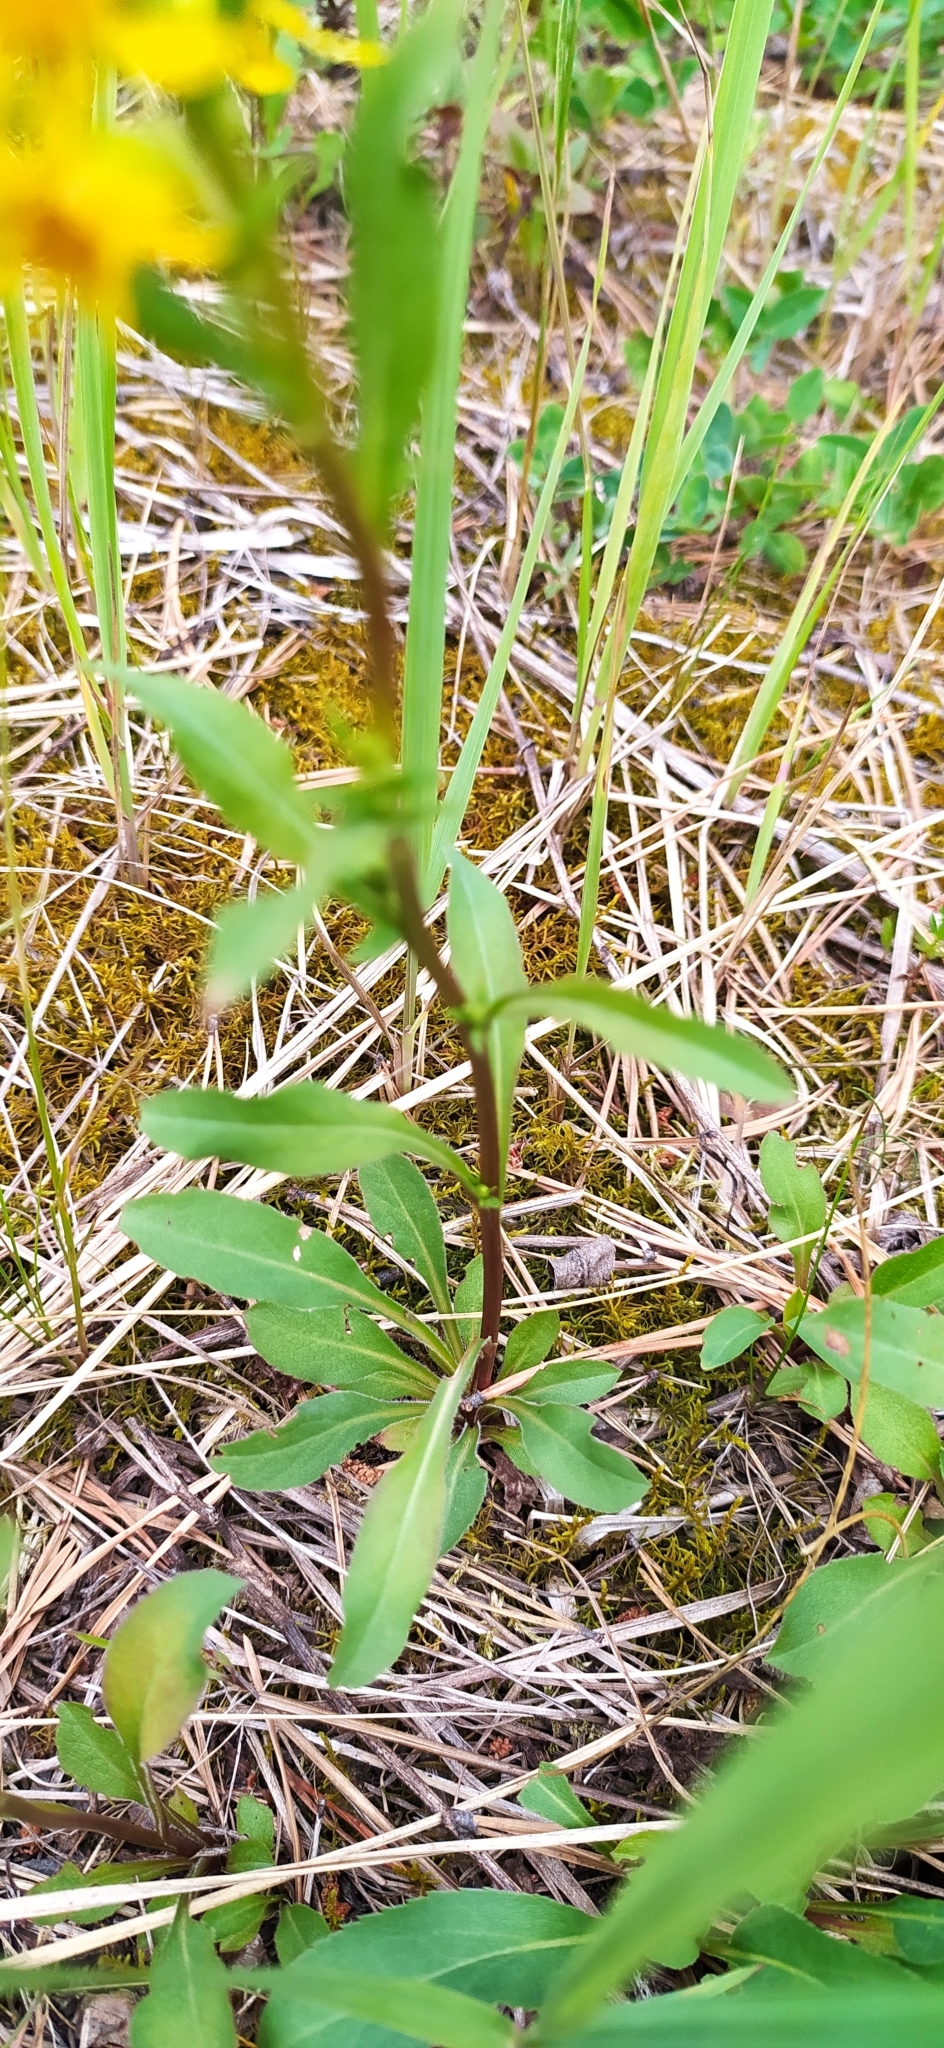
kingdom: Plantae
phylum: Tracheophyta
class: Magnoliopsida
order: Asterales
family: Asteraceae
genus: Solidago
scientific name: Solidago virgaurea
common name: Goldenrod
